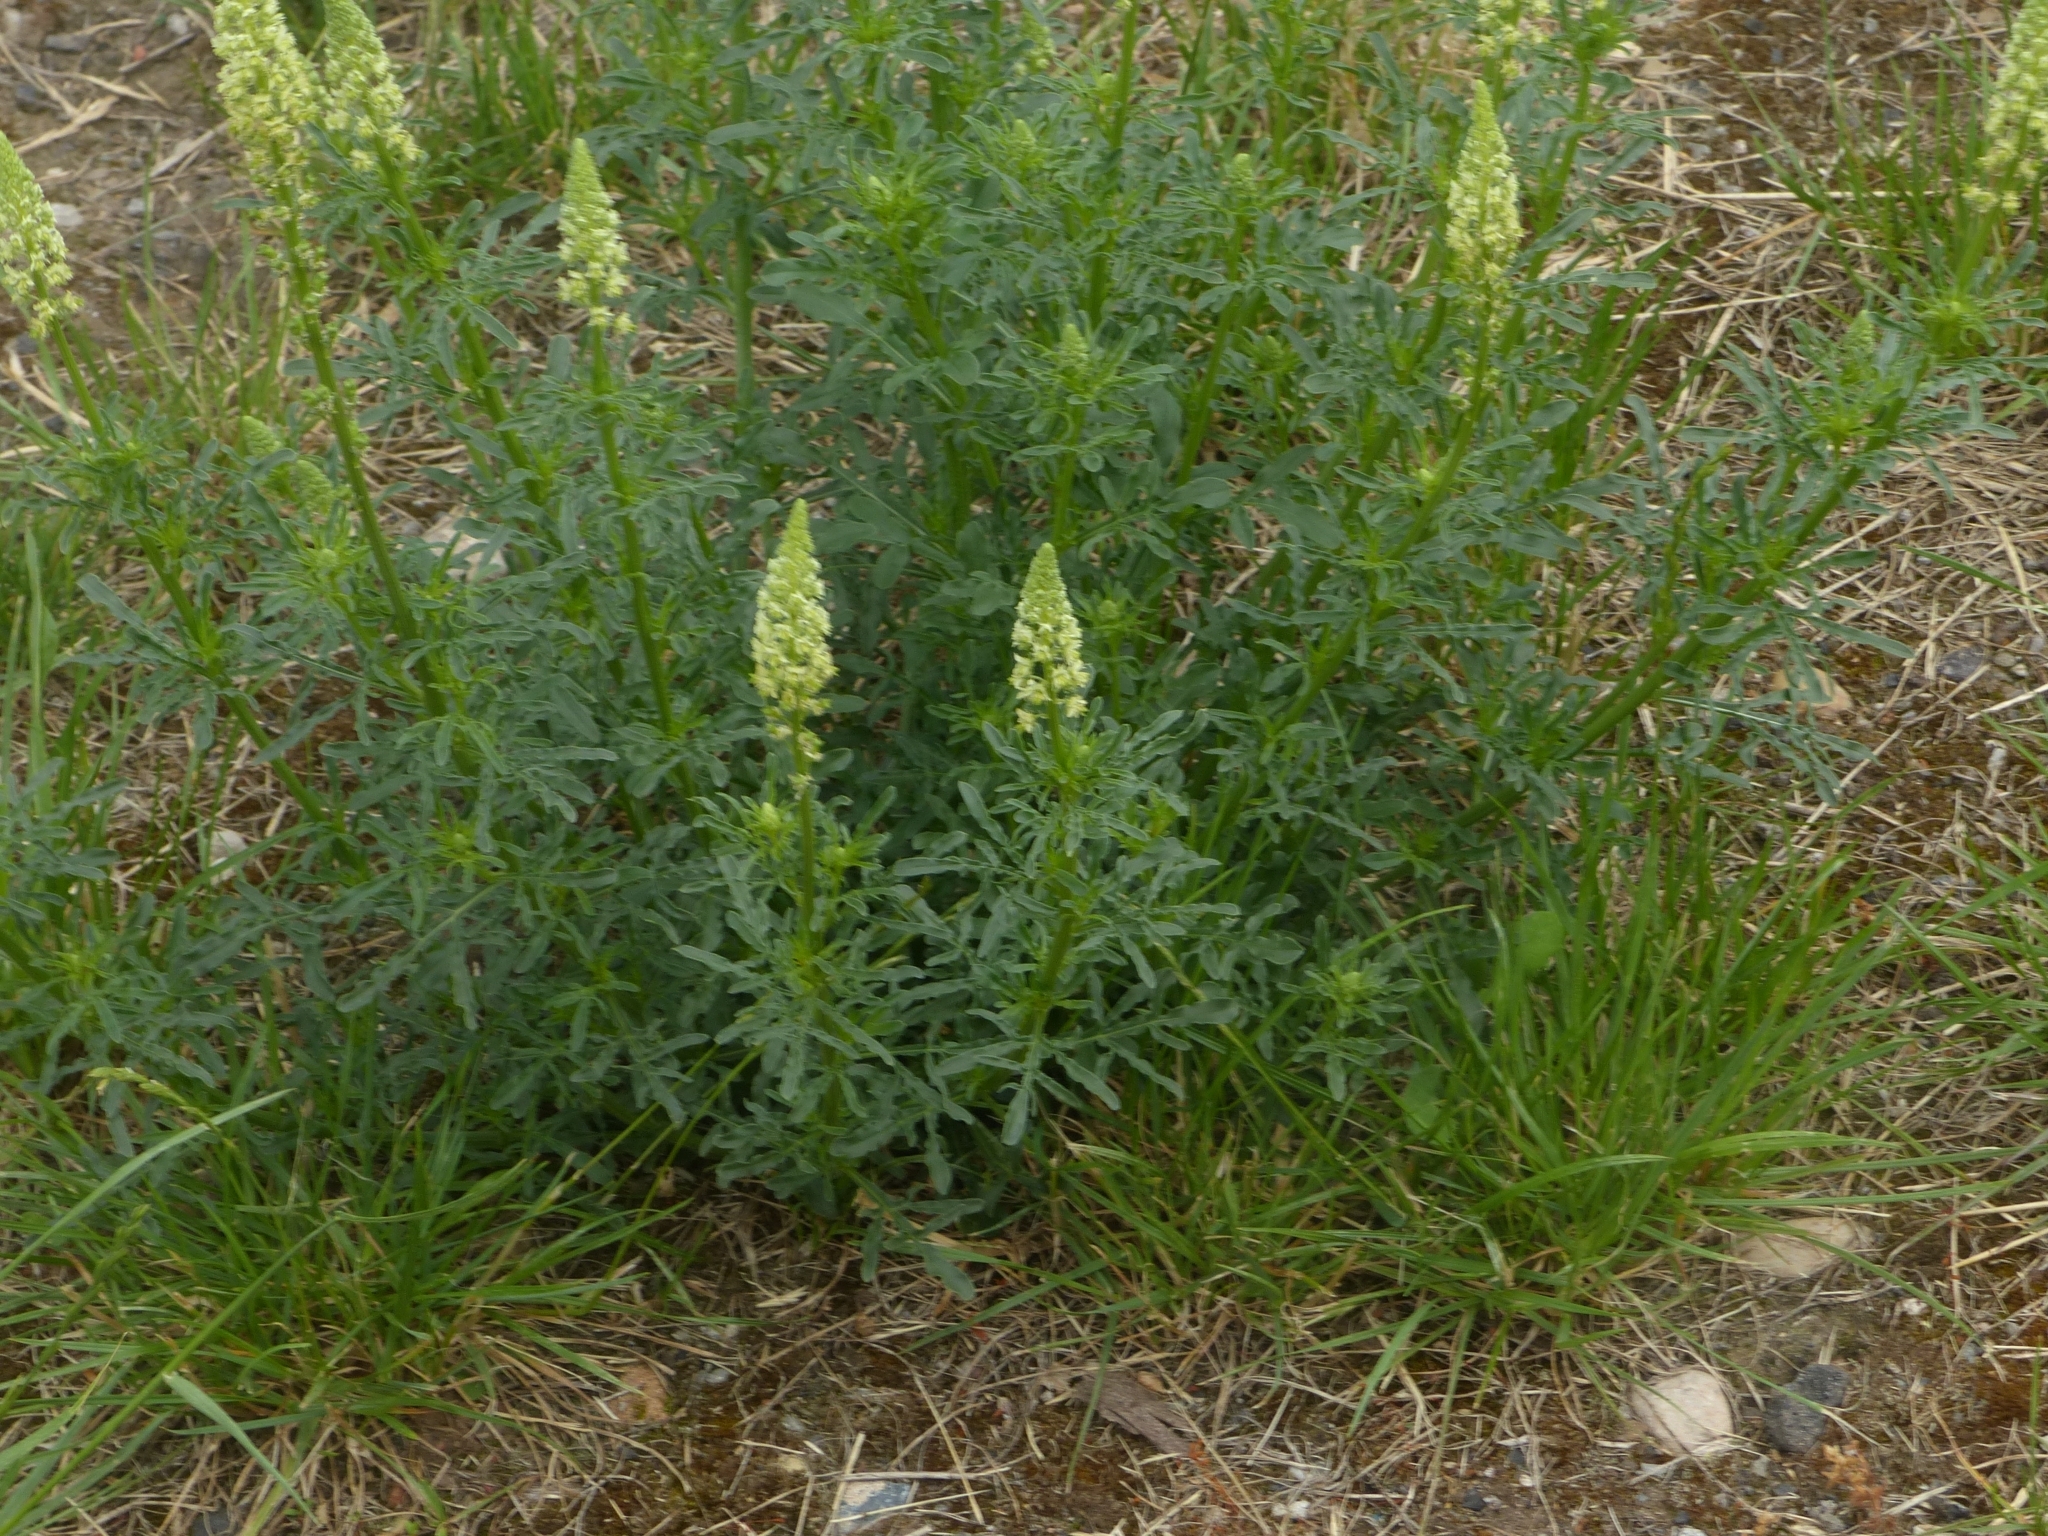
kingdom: Plantae
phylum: Tracheophyta
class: Magnoliopsida
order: Brassicales
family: Resedaceae
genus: Reseda
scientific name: Reseda lutea
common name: Wild mignonette
